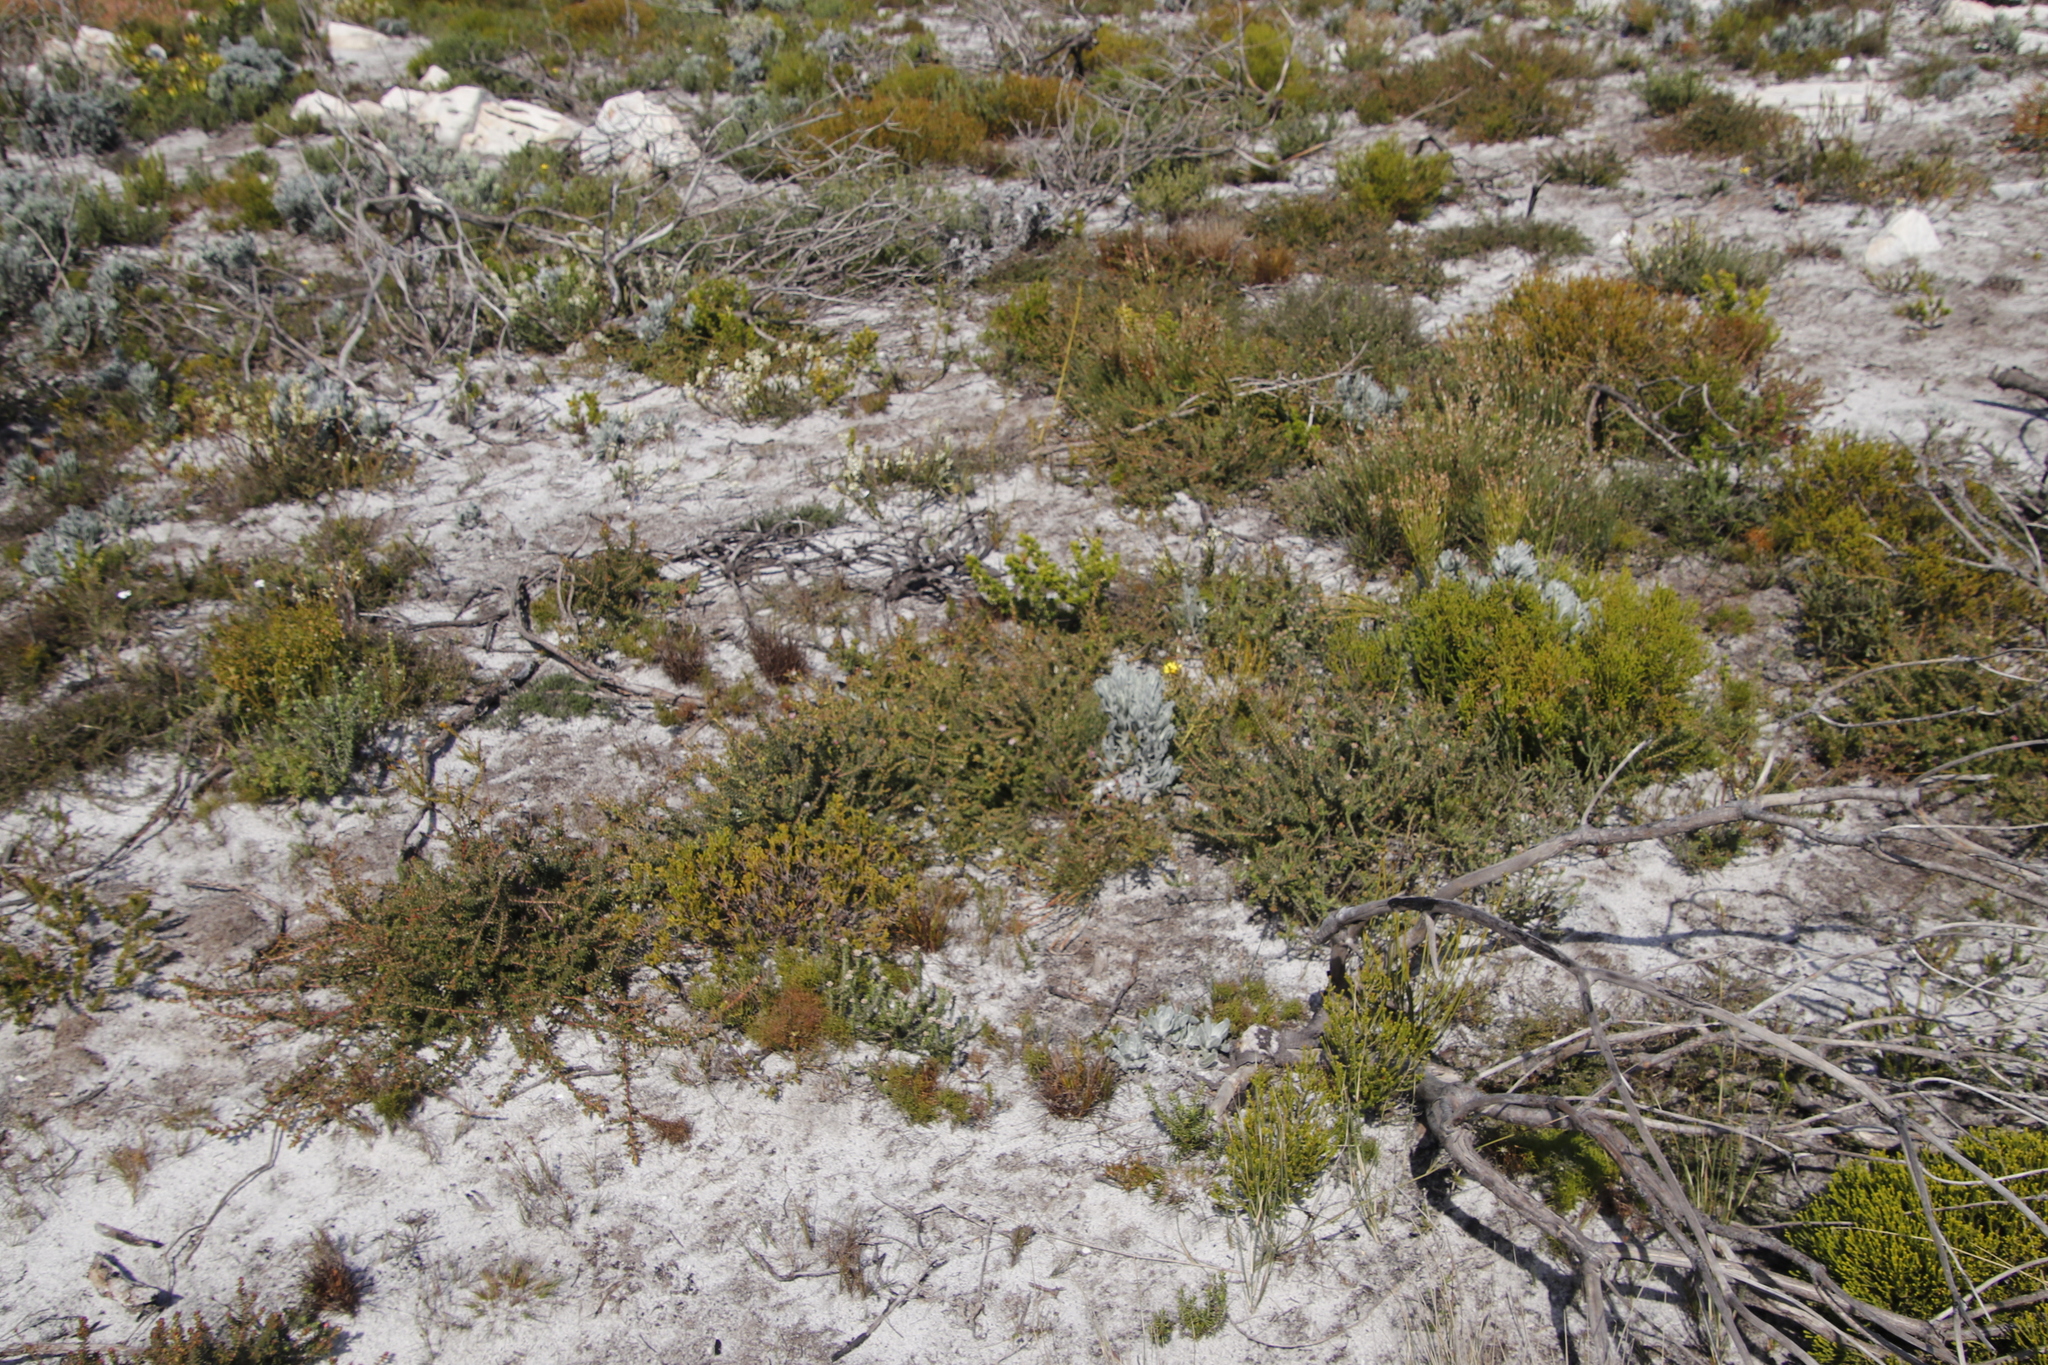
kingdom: Plantae
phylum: Tracheophyta
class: Magnoliopsida
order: Proteales
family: Proteaceae
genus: Diastella
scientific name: Diastella divaricata
